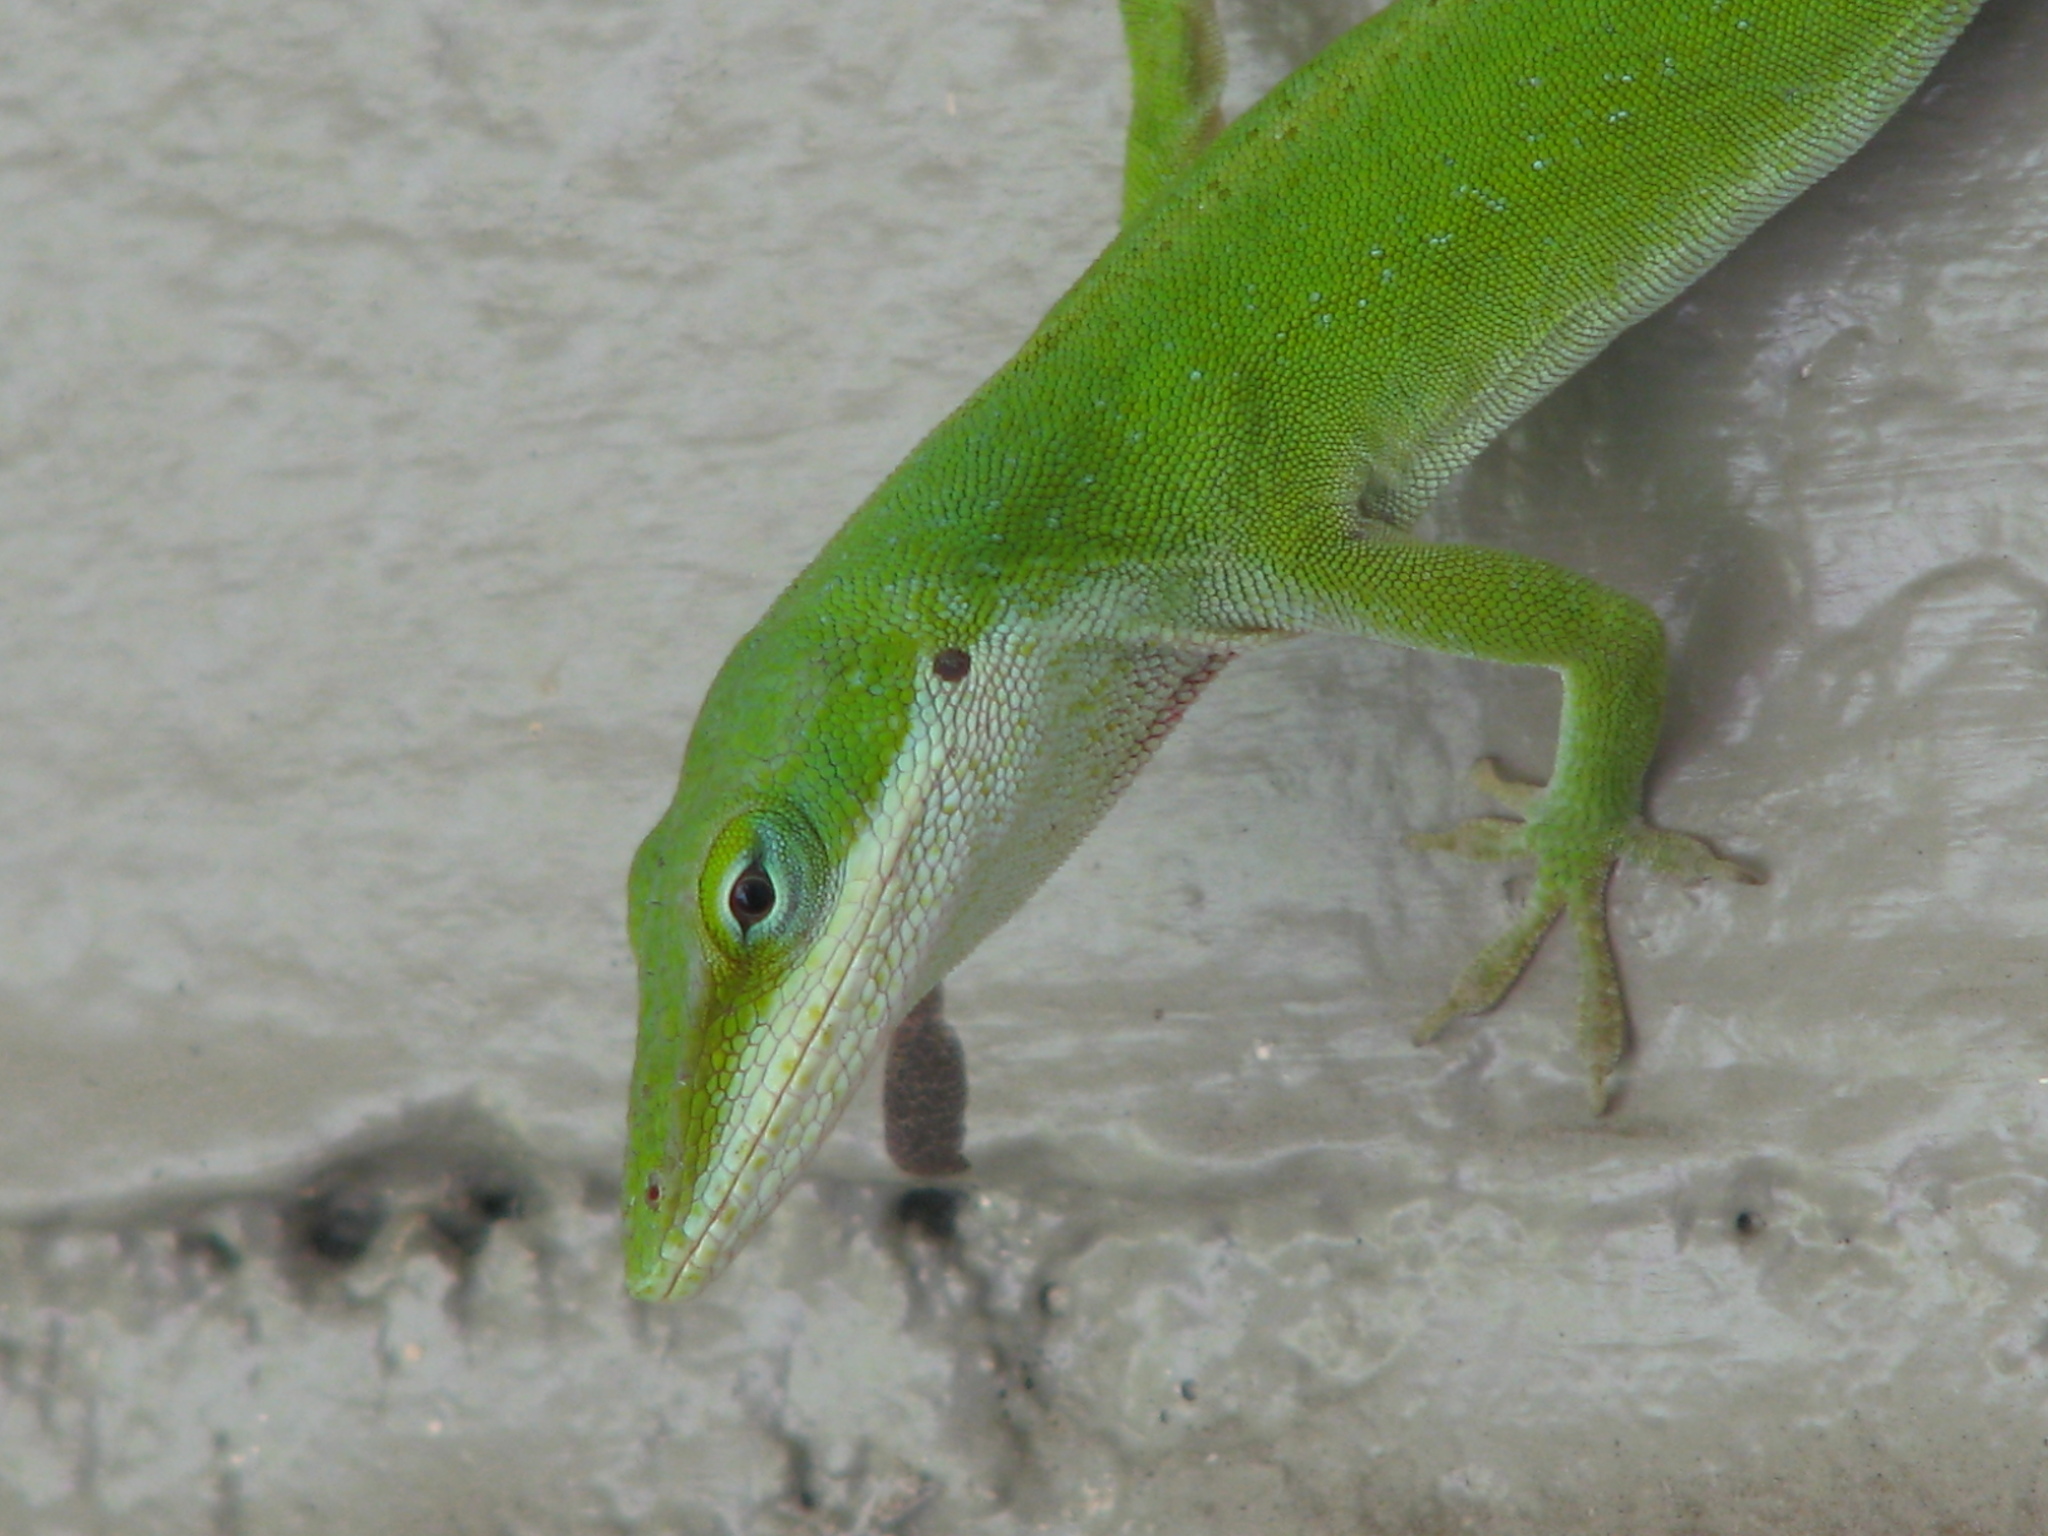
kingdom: Animalia
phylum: Chordata
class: Squamata
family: Dactyloidae
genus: Anolis
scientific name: Anolis carolinensis
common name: Green anole
